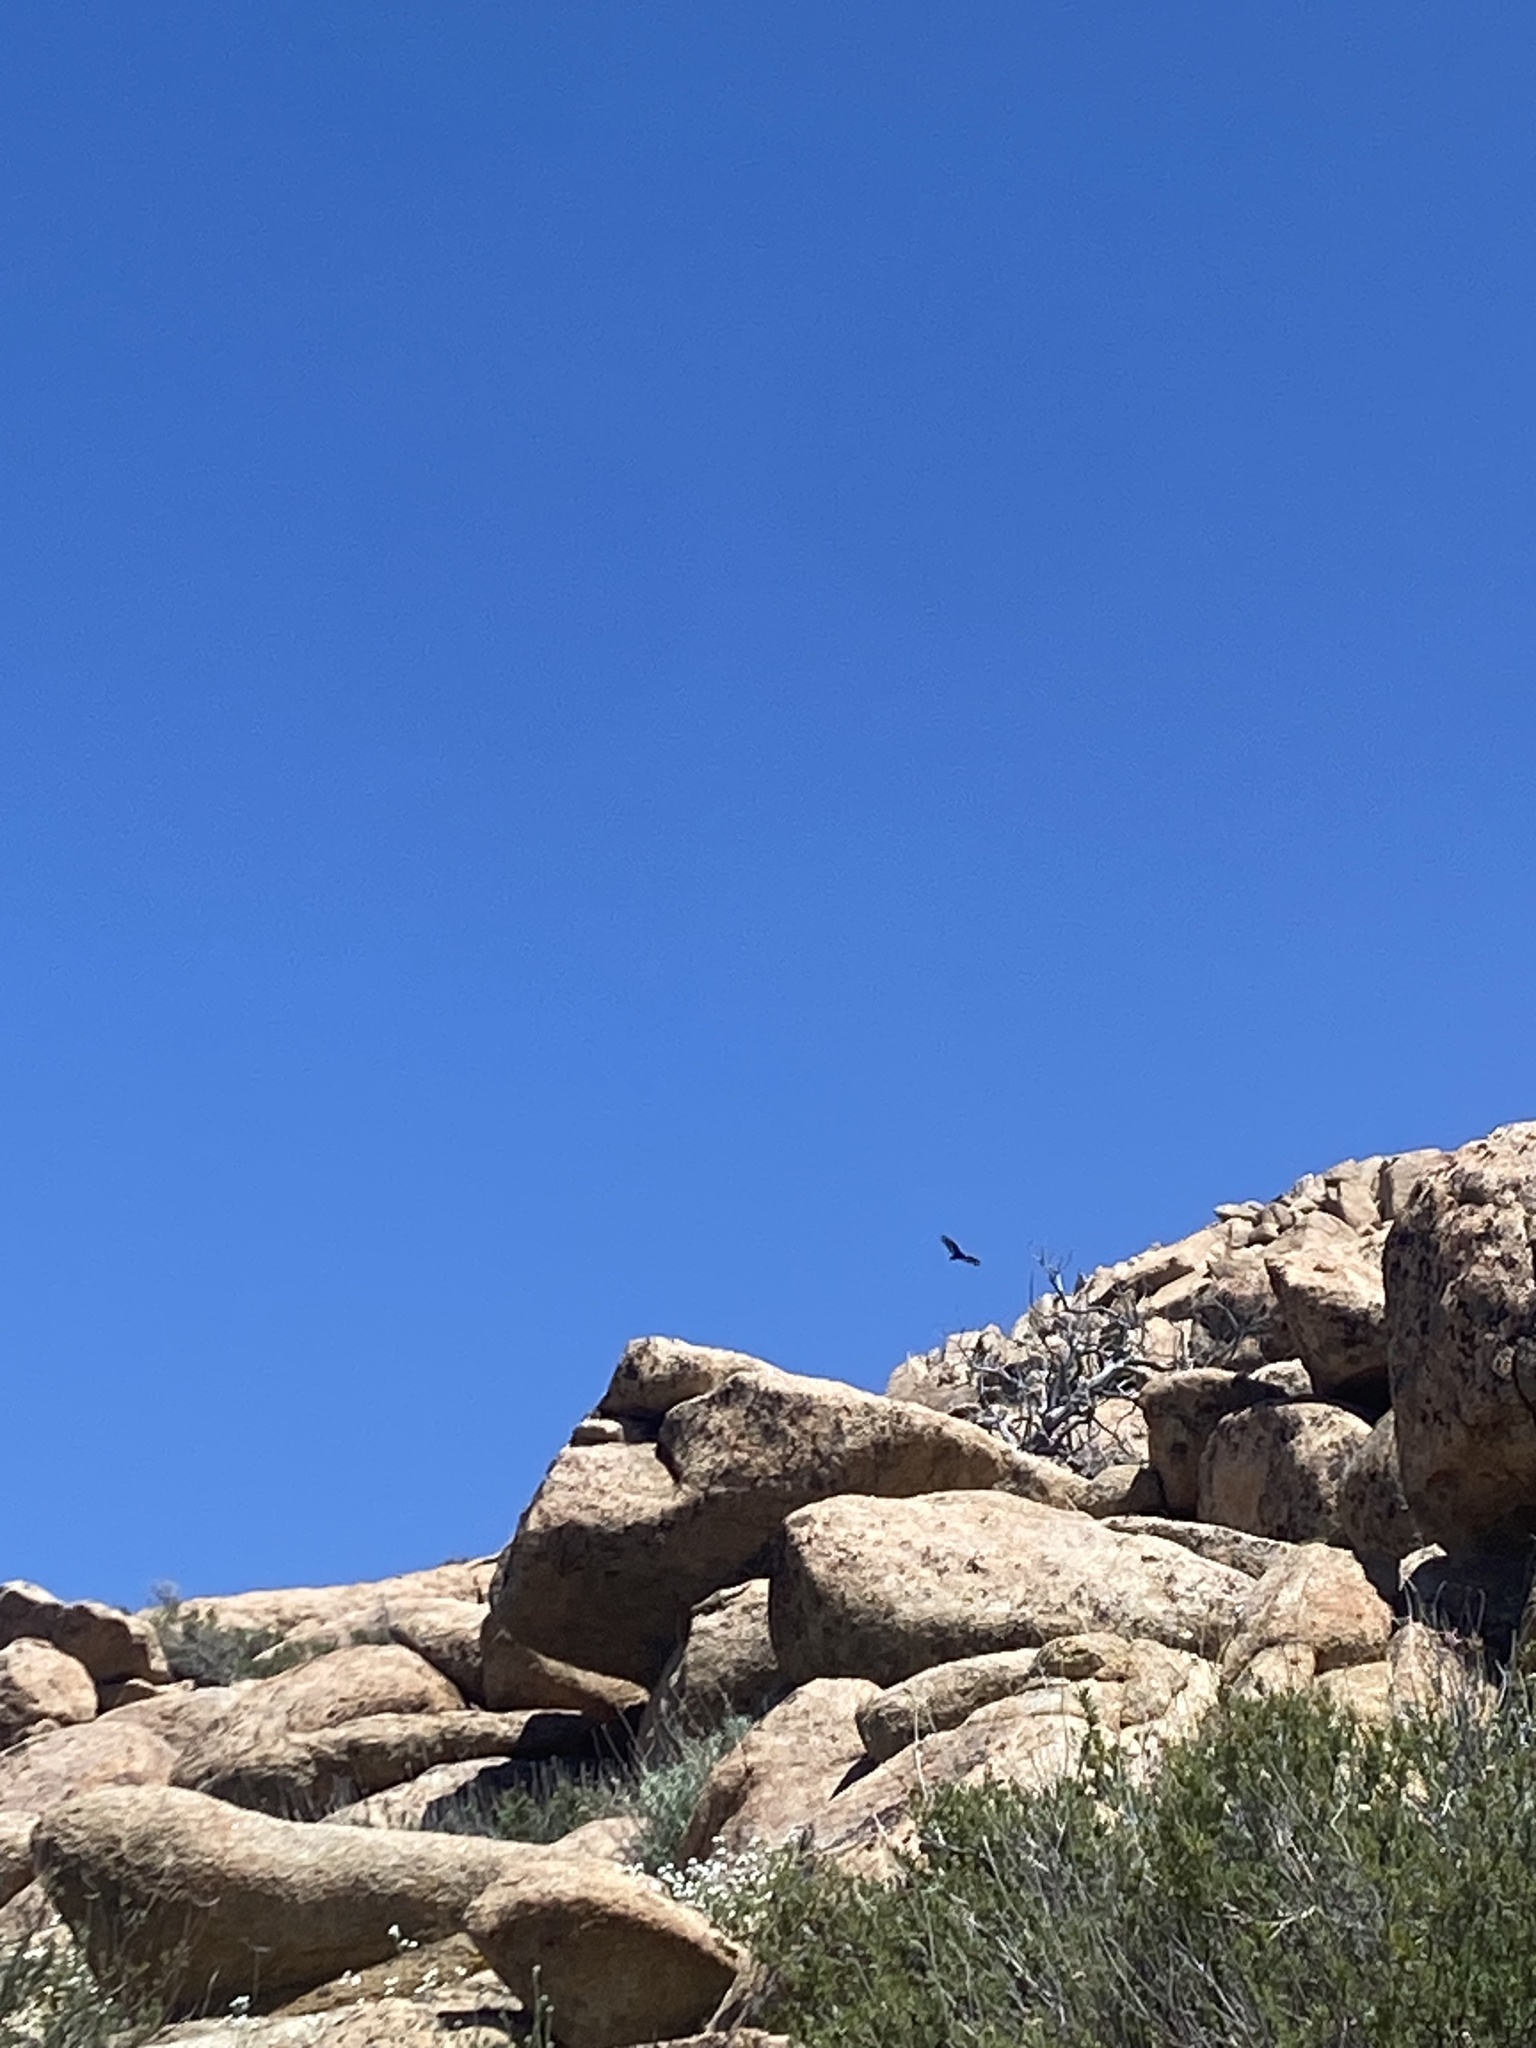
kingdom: Animalia
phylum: Chordata
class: Aves
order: Accipitriformes
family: Cathartidae
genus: Cathartes
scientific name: Cathartes aura
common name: Turkey vulture
